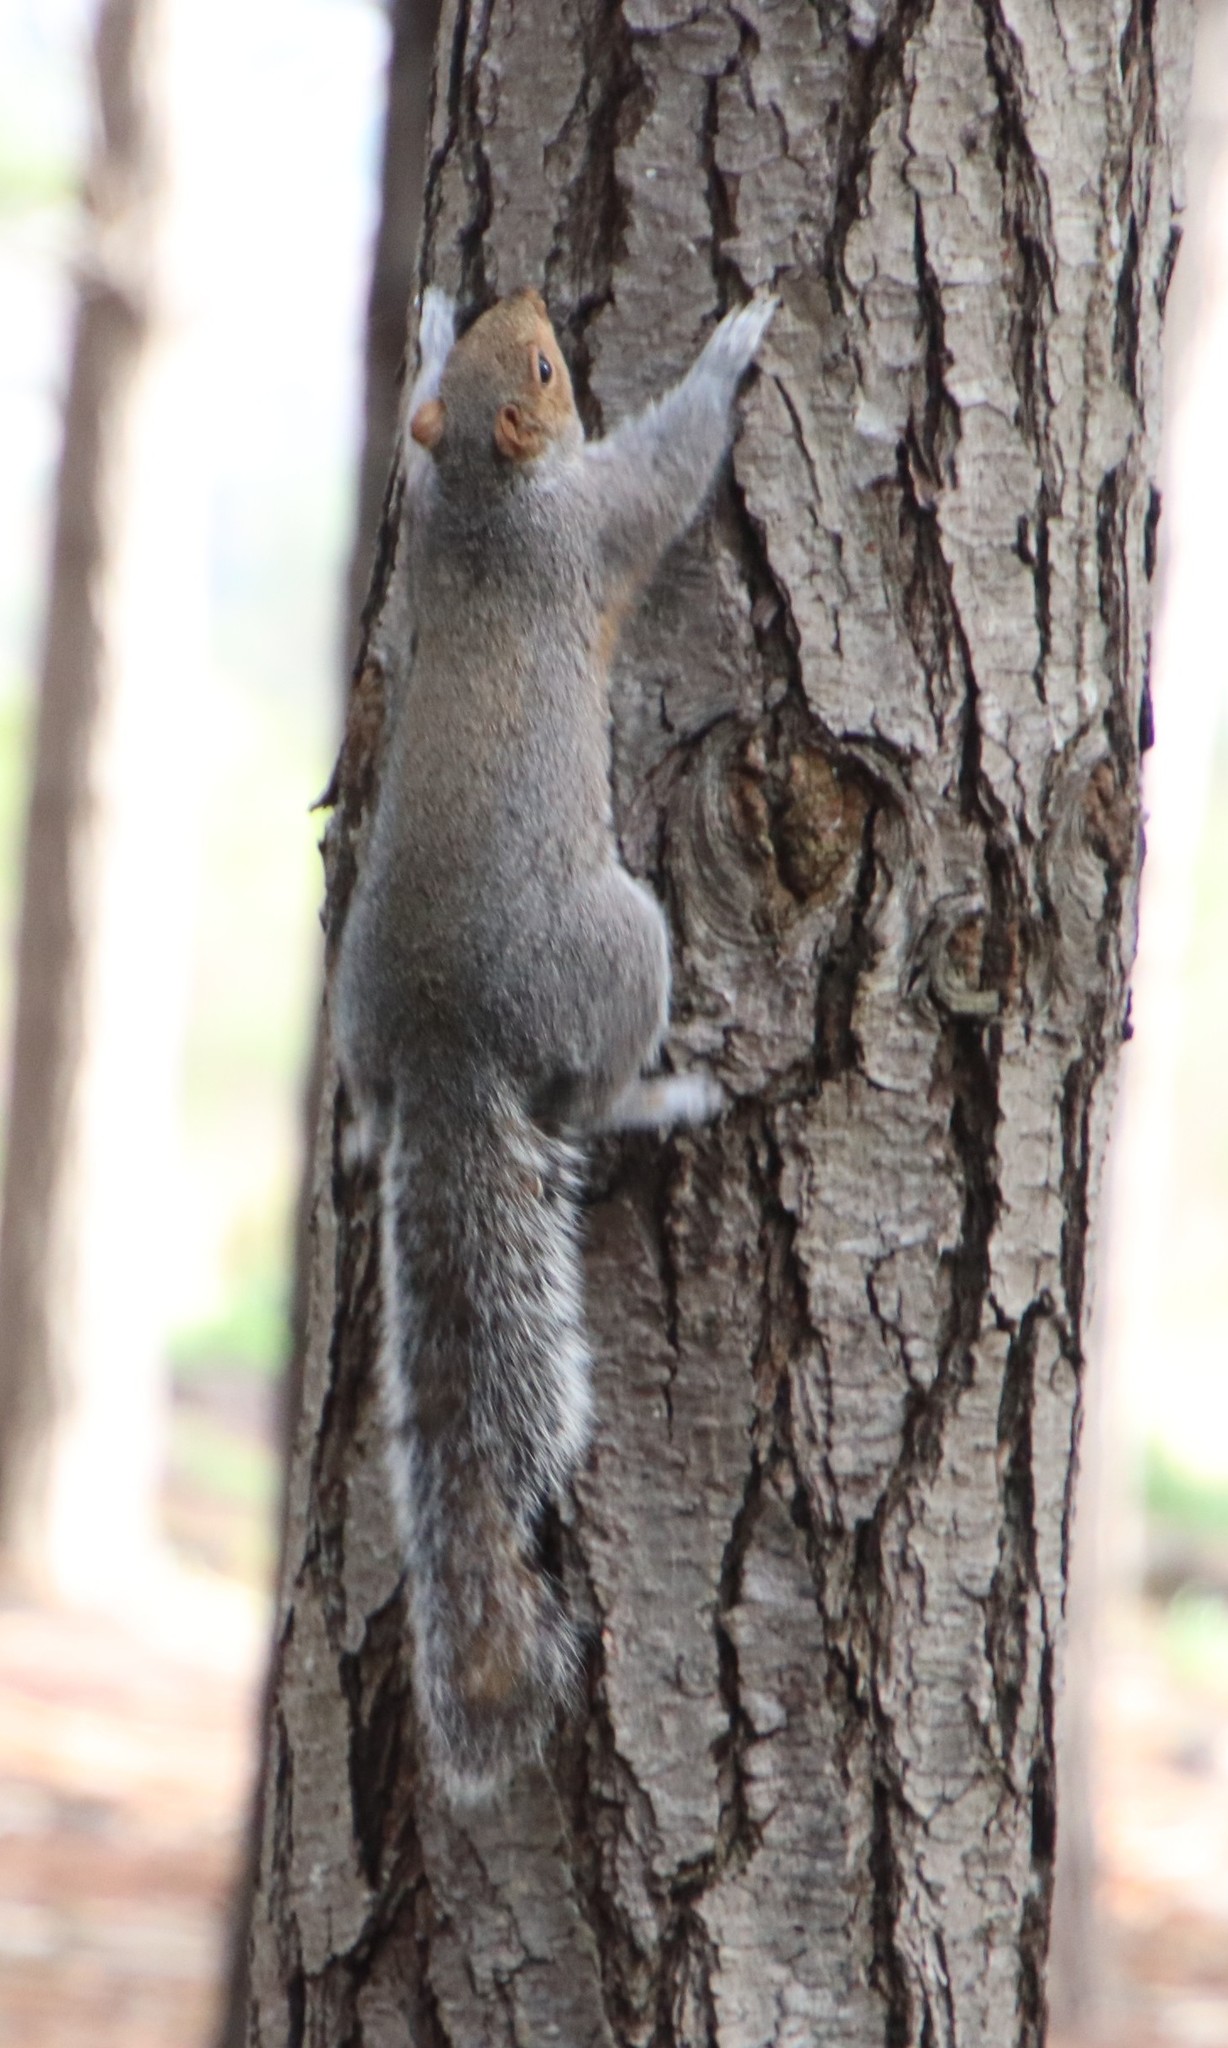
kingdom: Animalia
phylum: Chordata
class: Mammalia
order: Rodentia
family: Sciuridae
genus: Sciurus
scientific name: Sciurus carolinensis
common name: Eastern gray squirrel
